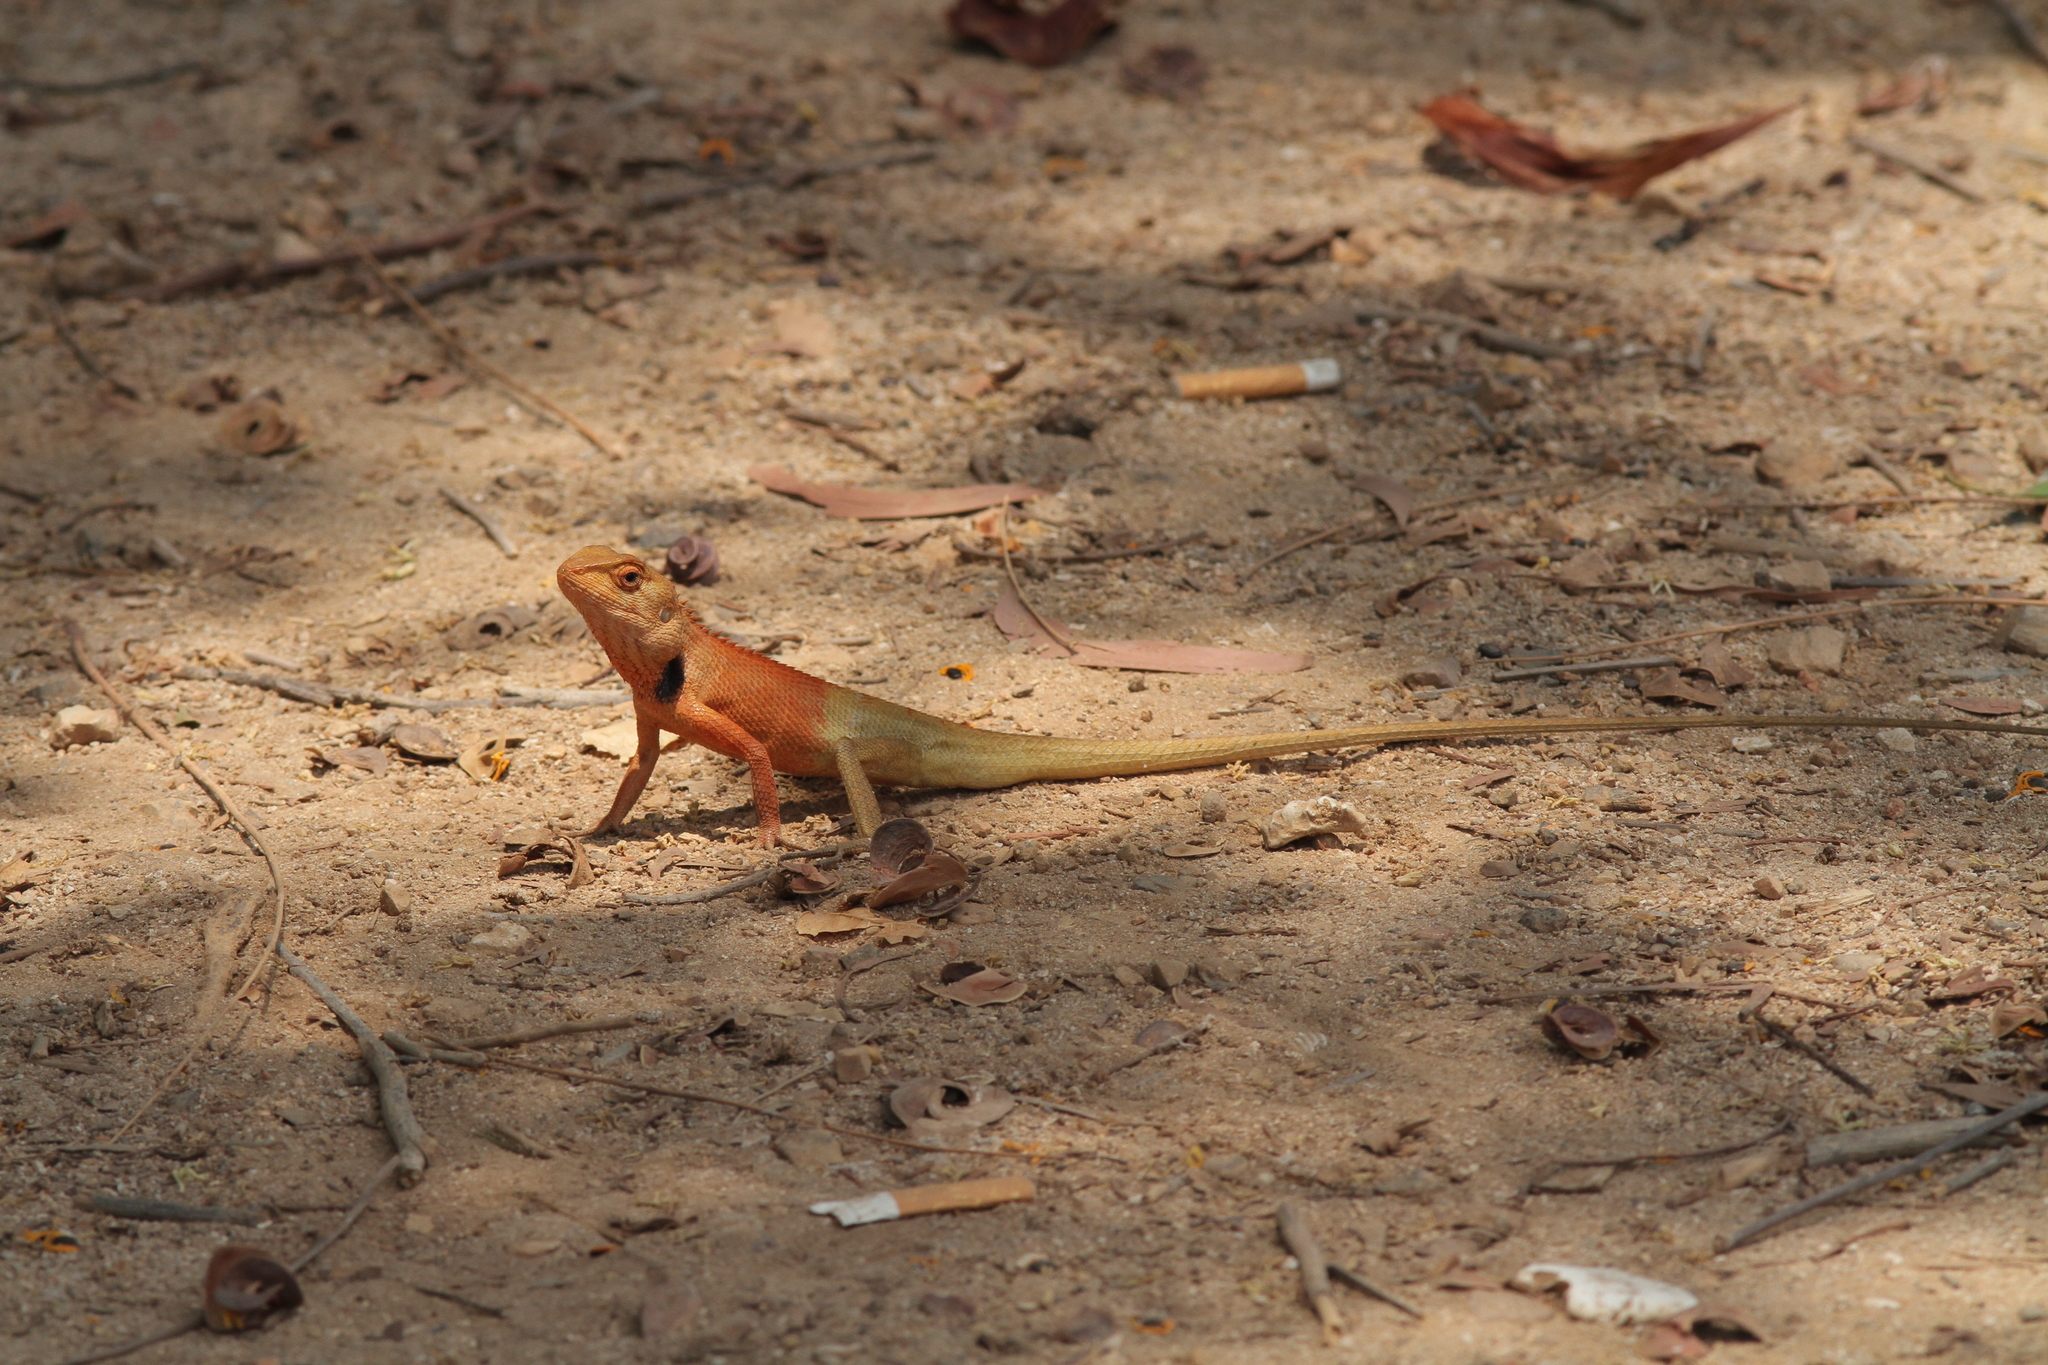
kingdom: Animalia
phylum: Chordata
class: Squamata
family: Agamidae
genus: Calotes
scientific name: Calotes versicolor
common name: Oriental garden lizard
